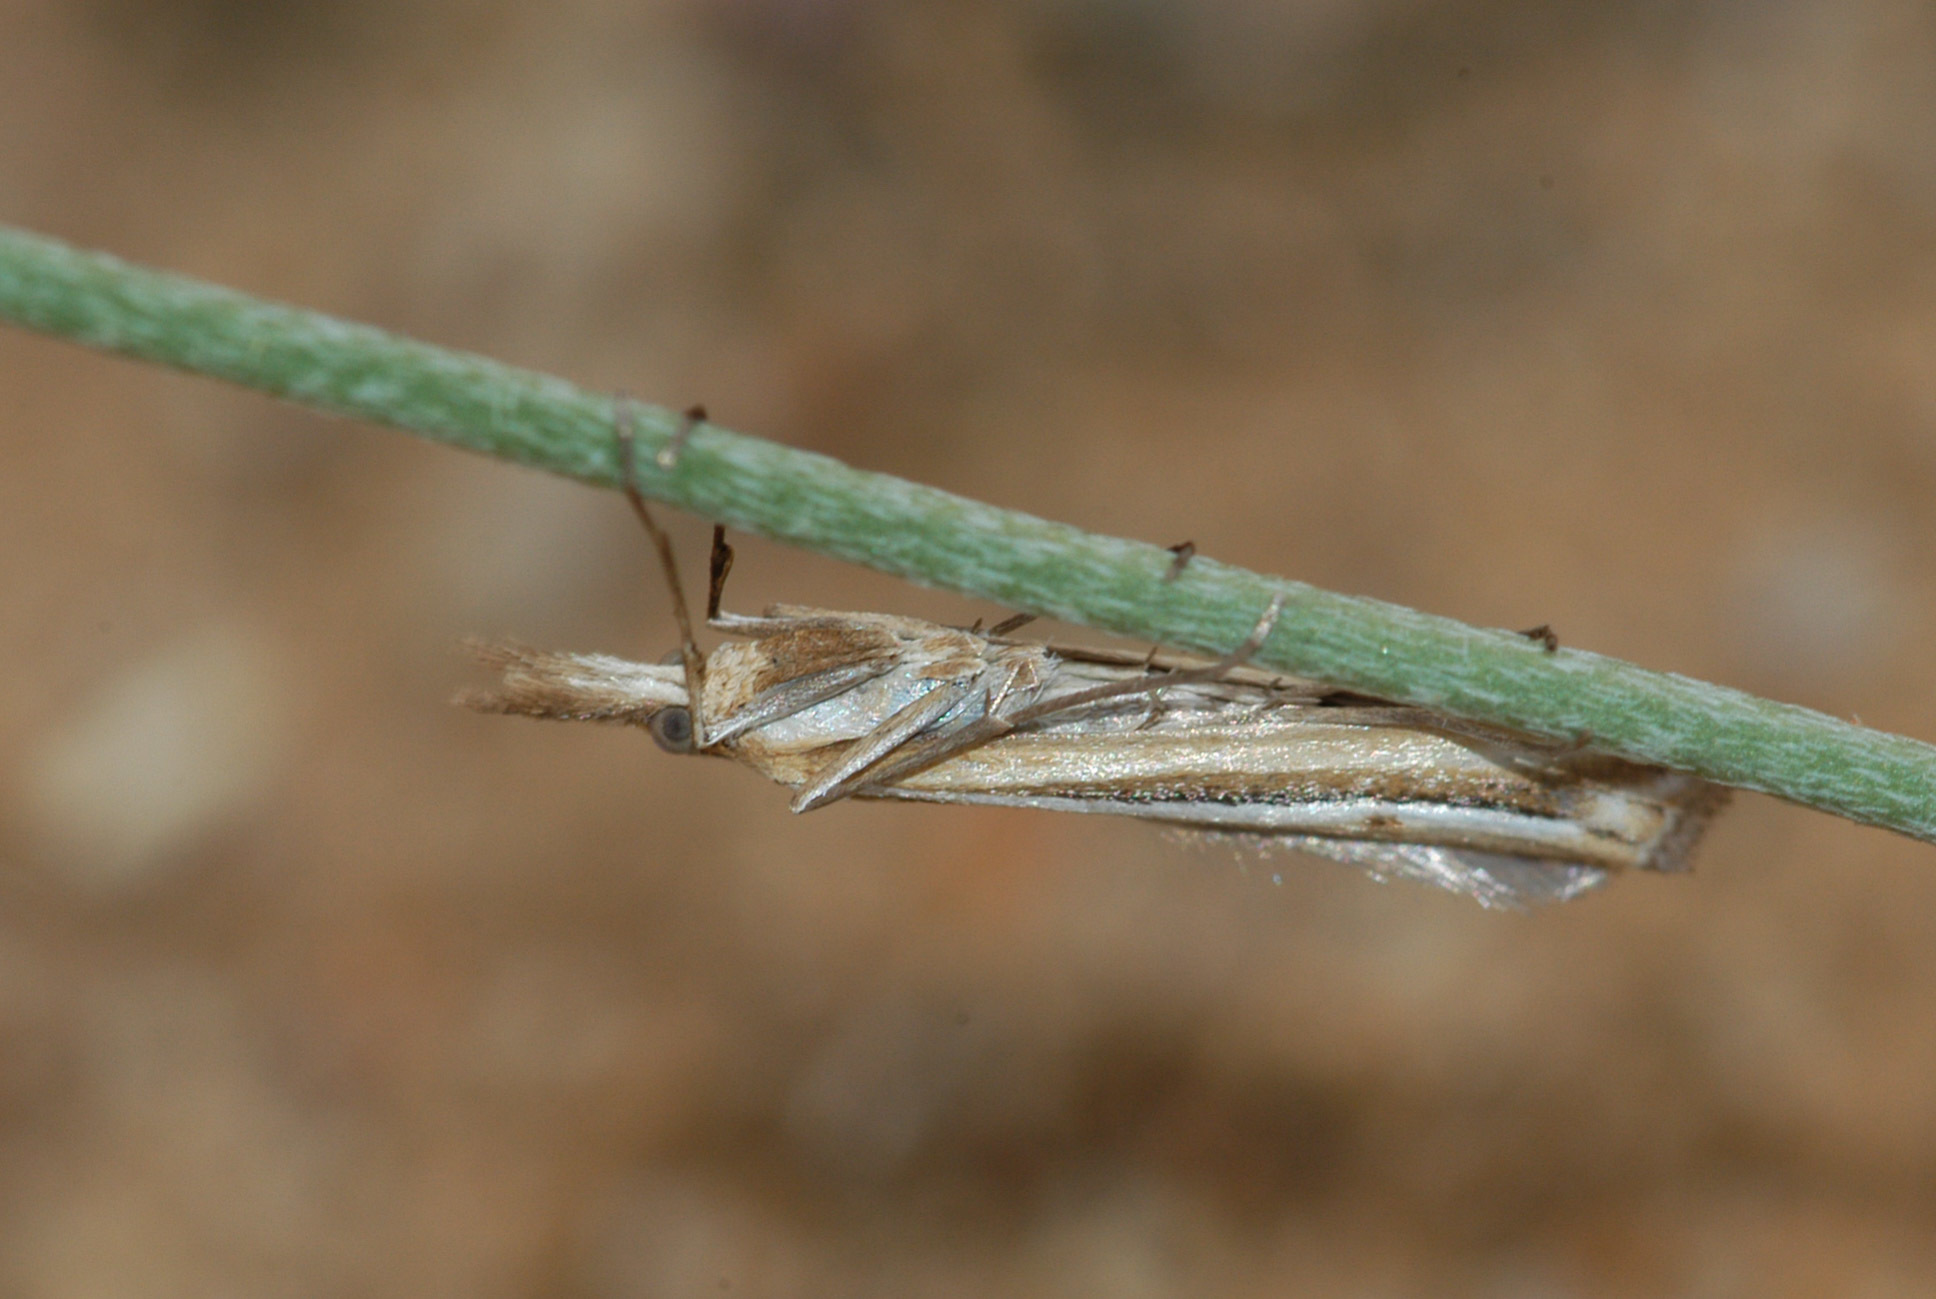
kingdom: Animalia
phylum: Arthropoda
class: Insecta
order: Lepidoptera
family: Crambidae
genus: Hednota
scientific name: Hednota cyclosema
